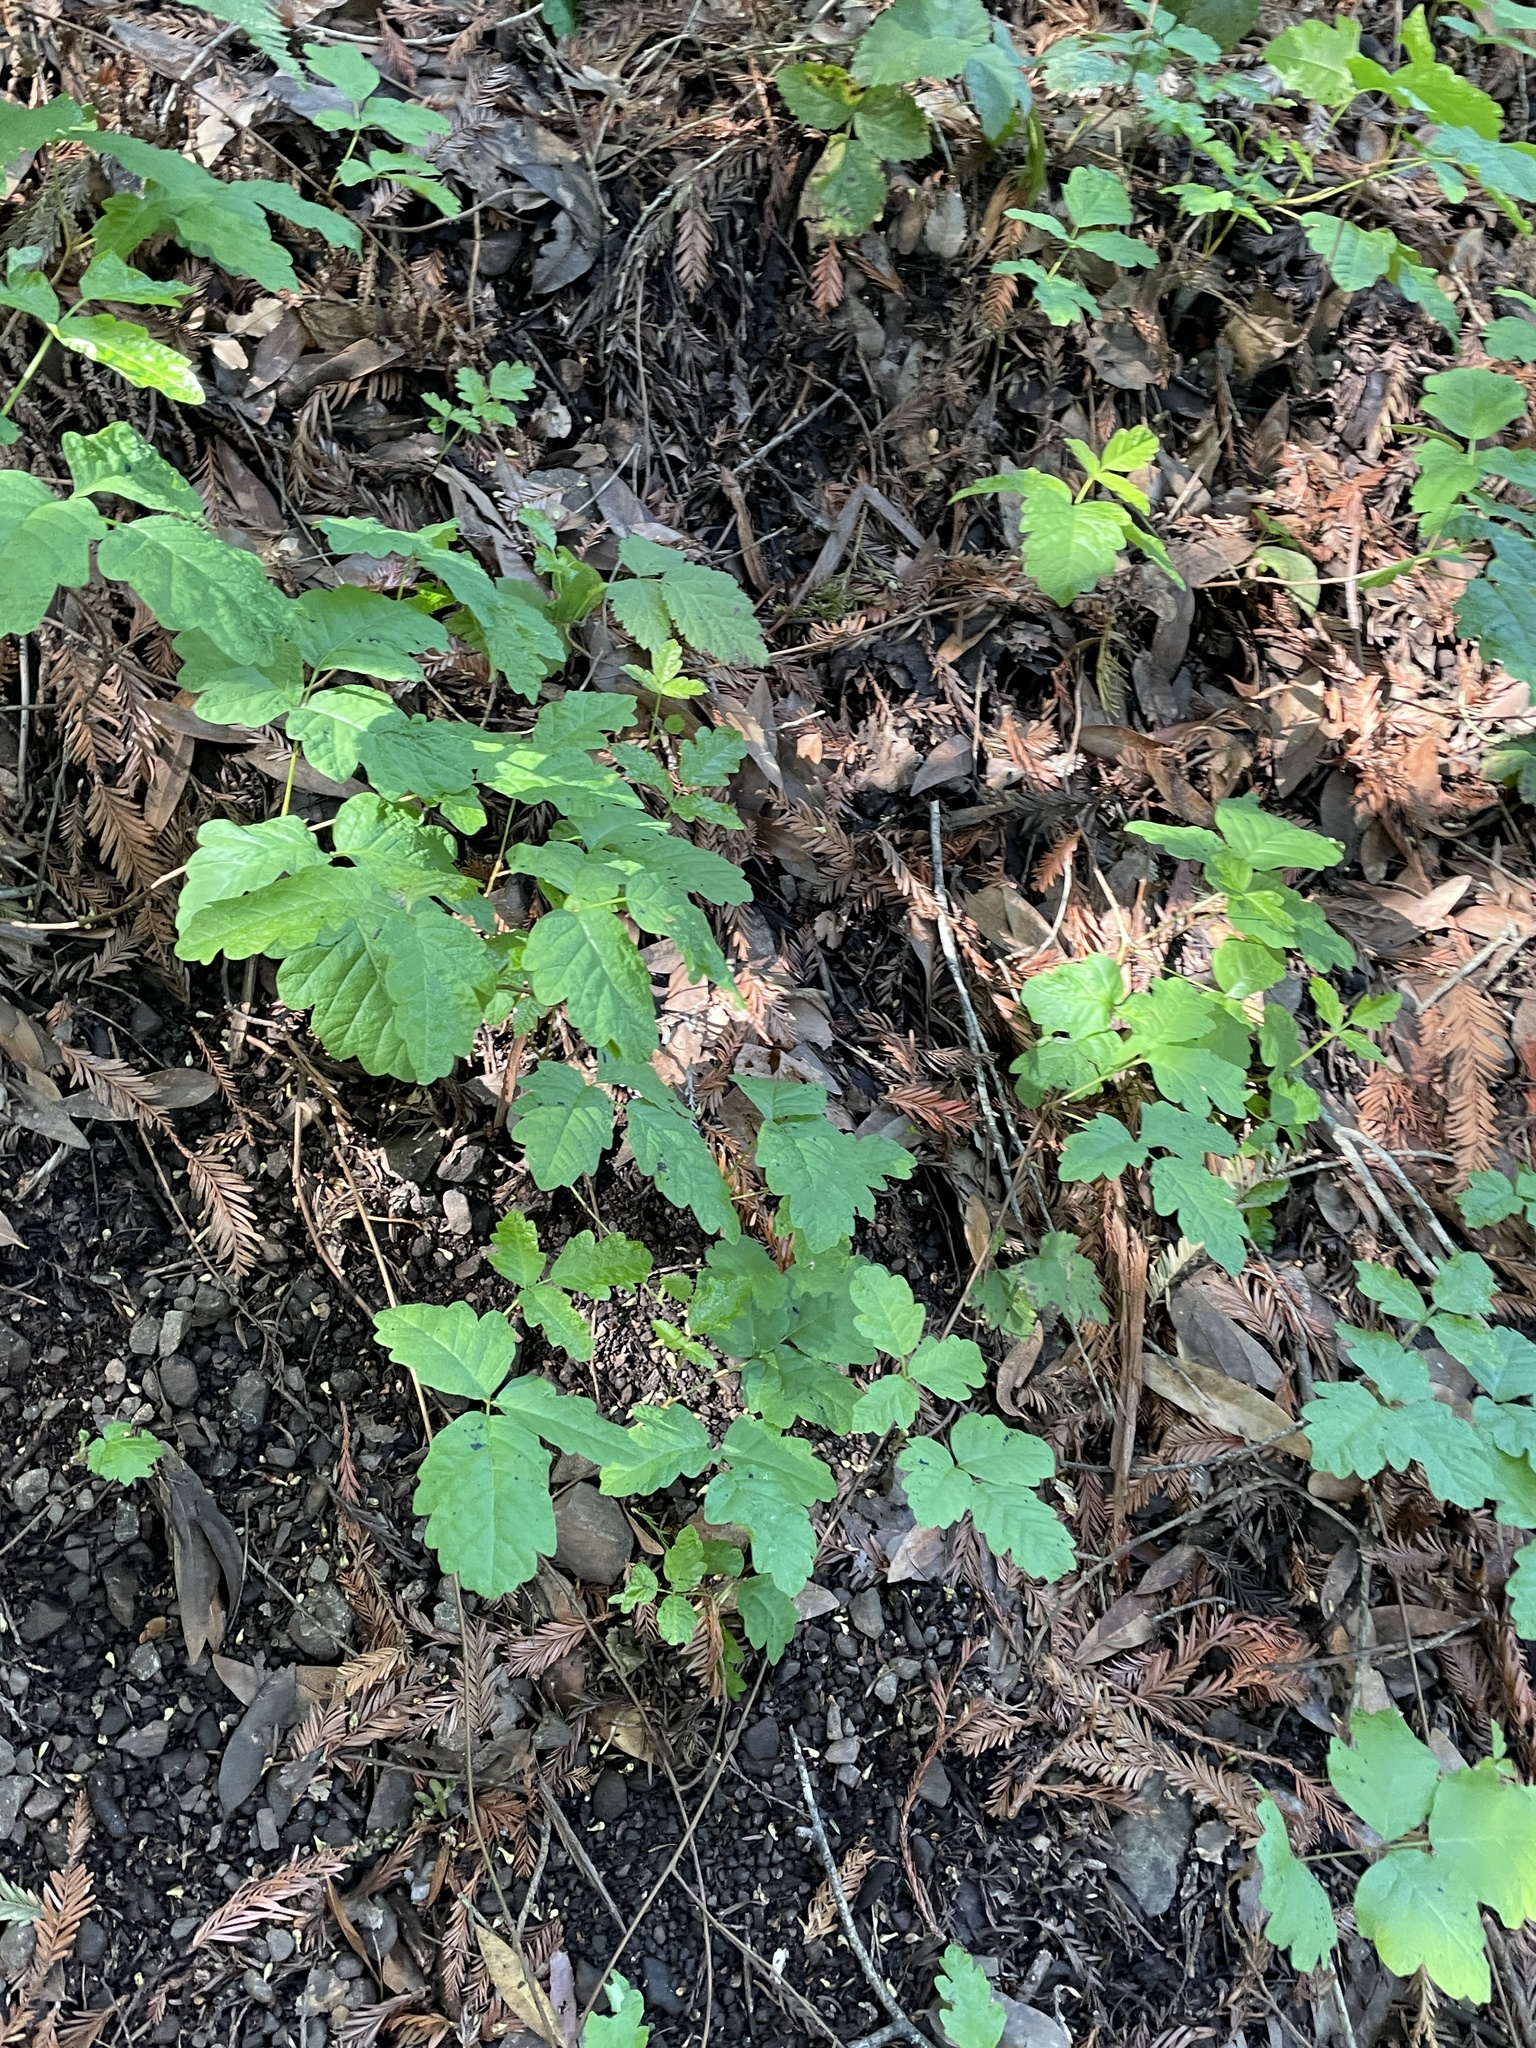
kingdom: Plantae
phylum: Tracheophyta
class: Magnoliopsida
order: Sapindales
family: Anacardiaceae
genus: Toxicodendron
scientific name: Toxicodendron diversilobum
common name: Pacific poison-oak
